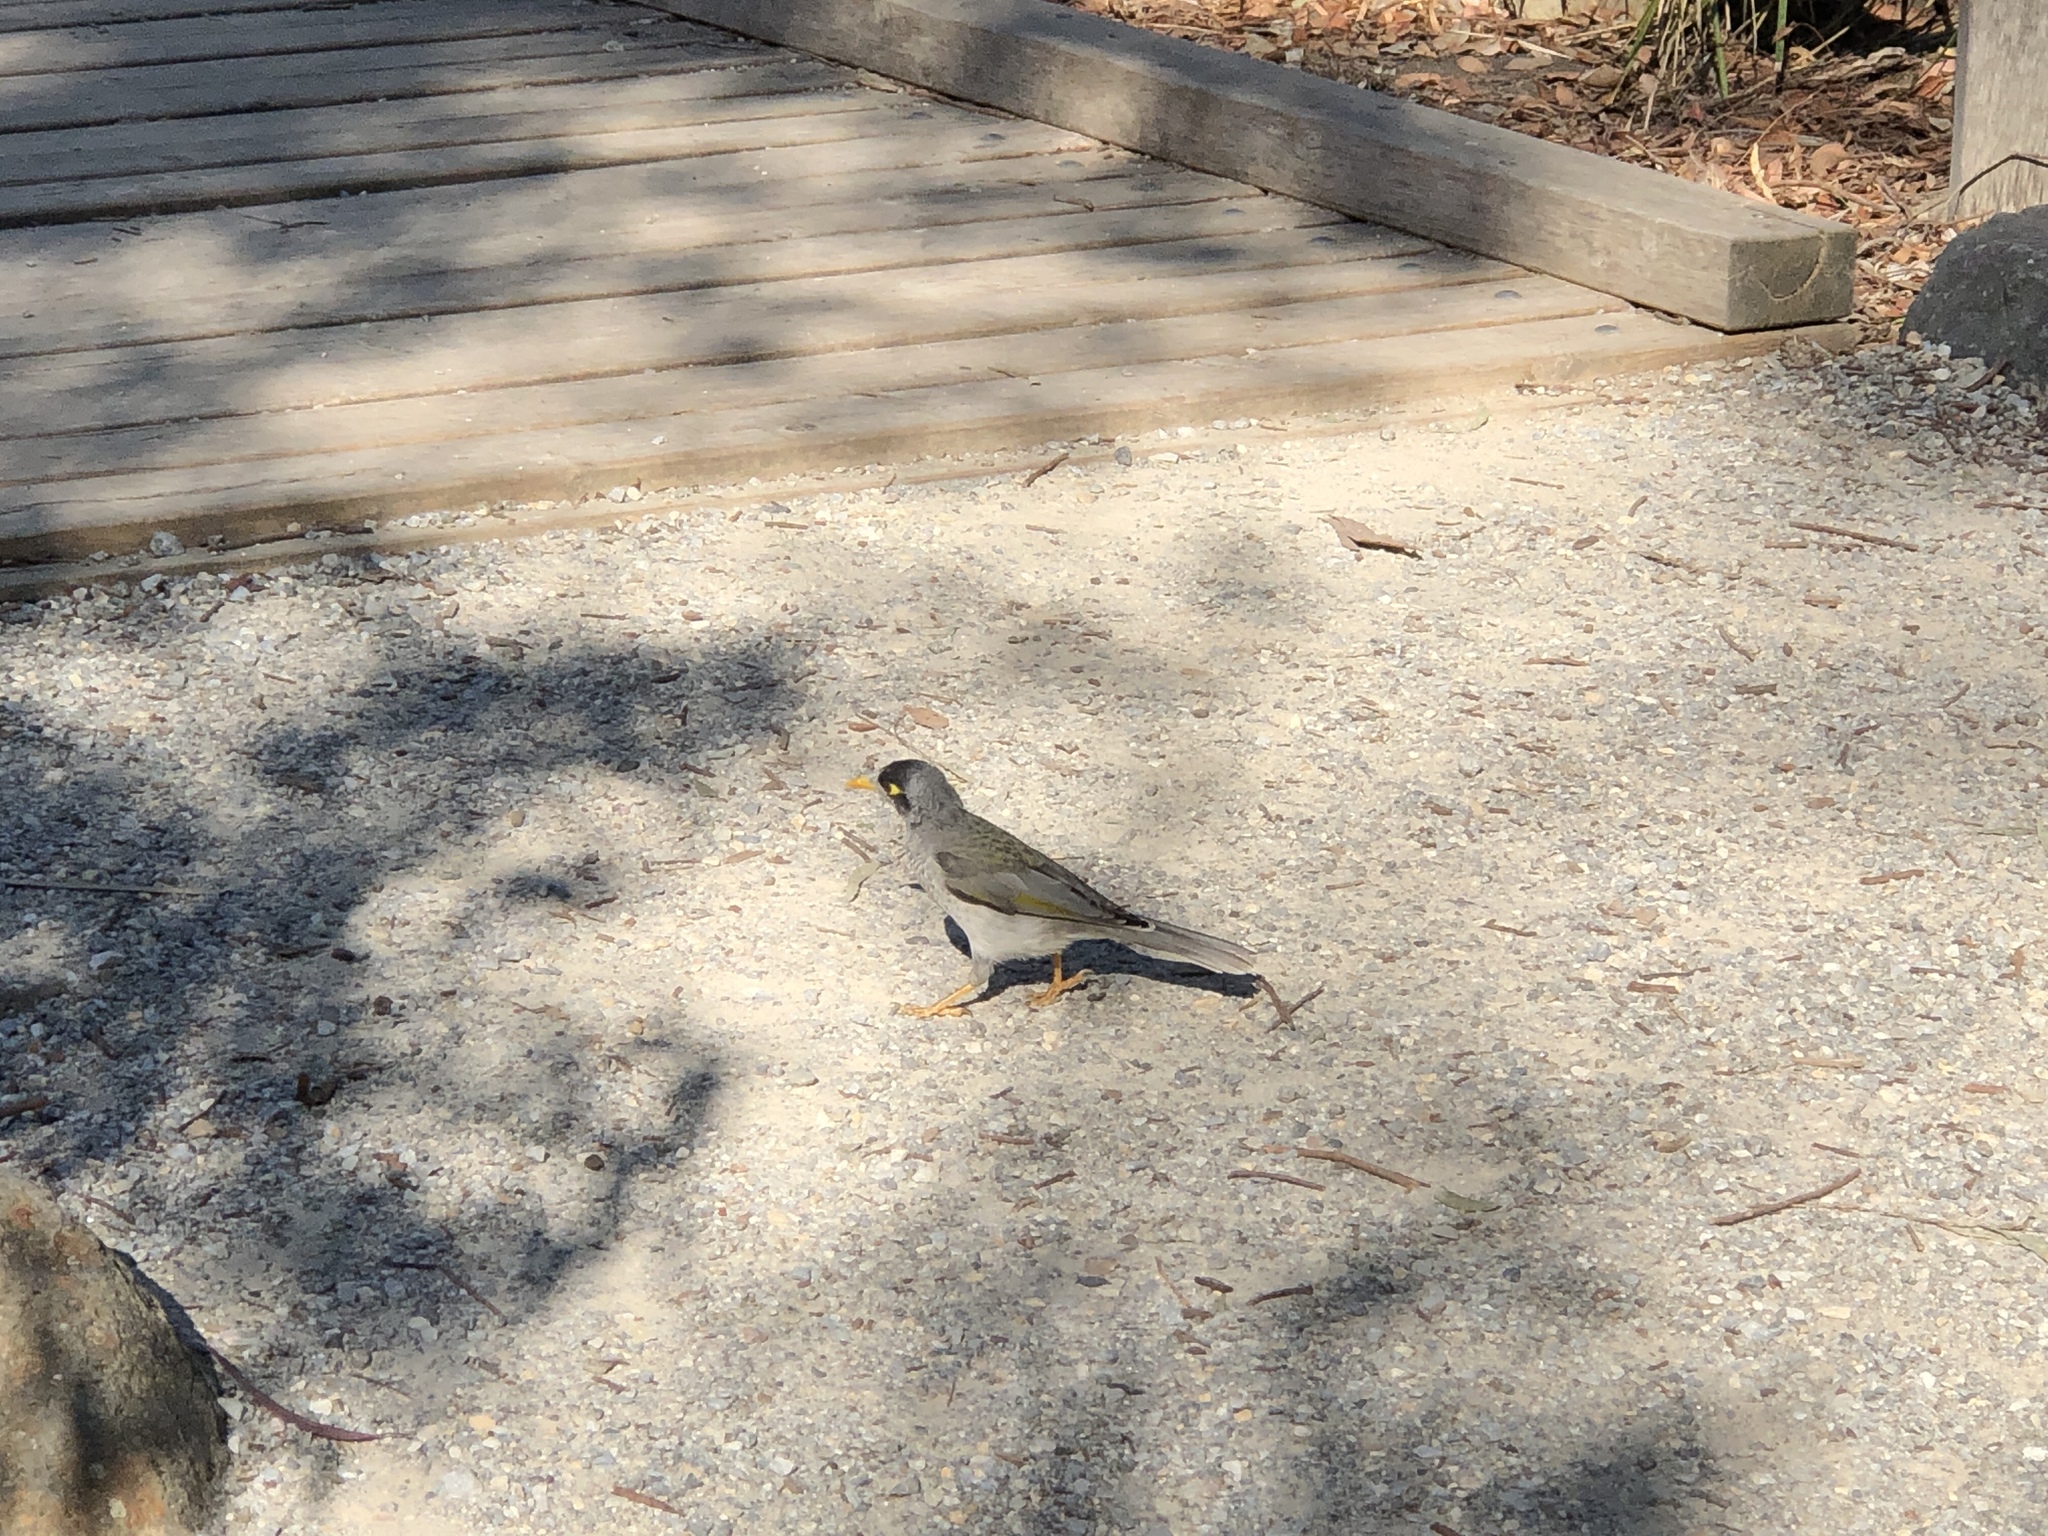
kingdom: Animalia
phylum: Chordata
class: Aves
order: Passeriformes
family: Meliphagidae
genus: Manorina
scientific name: Manorina melanocephala
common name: Noisy miner
